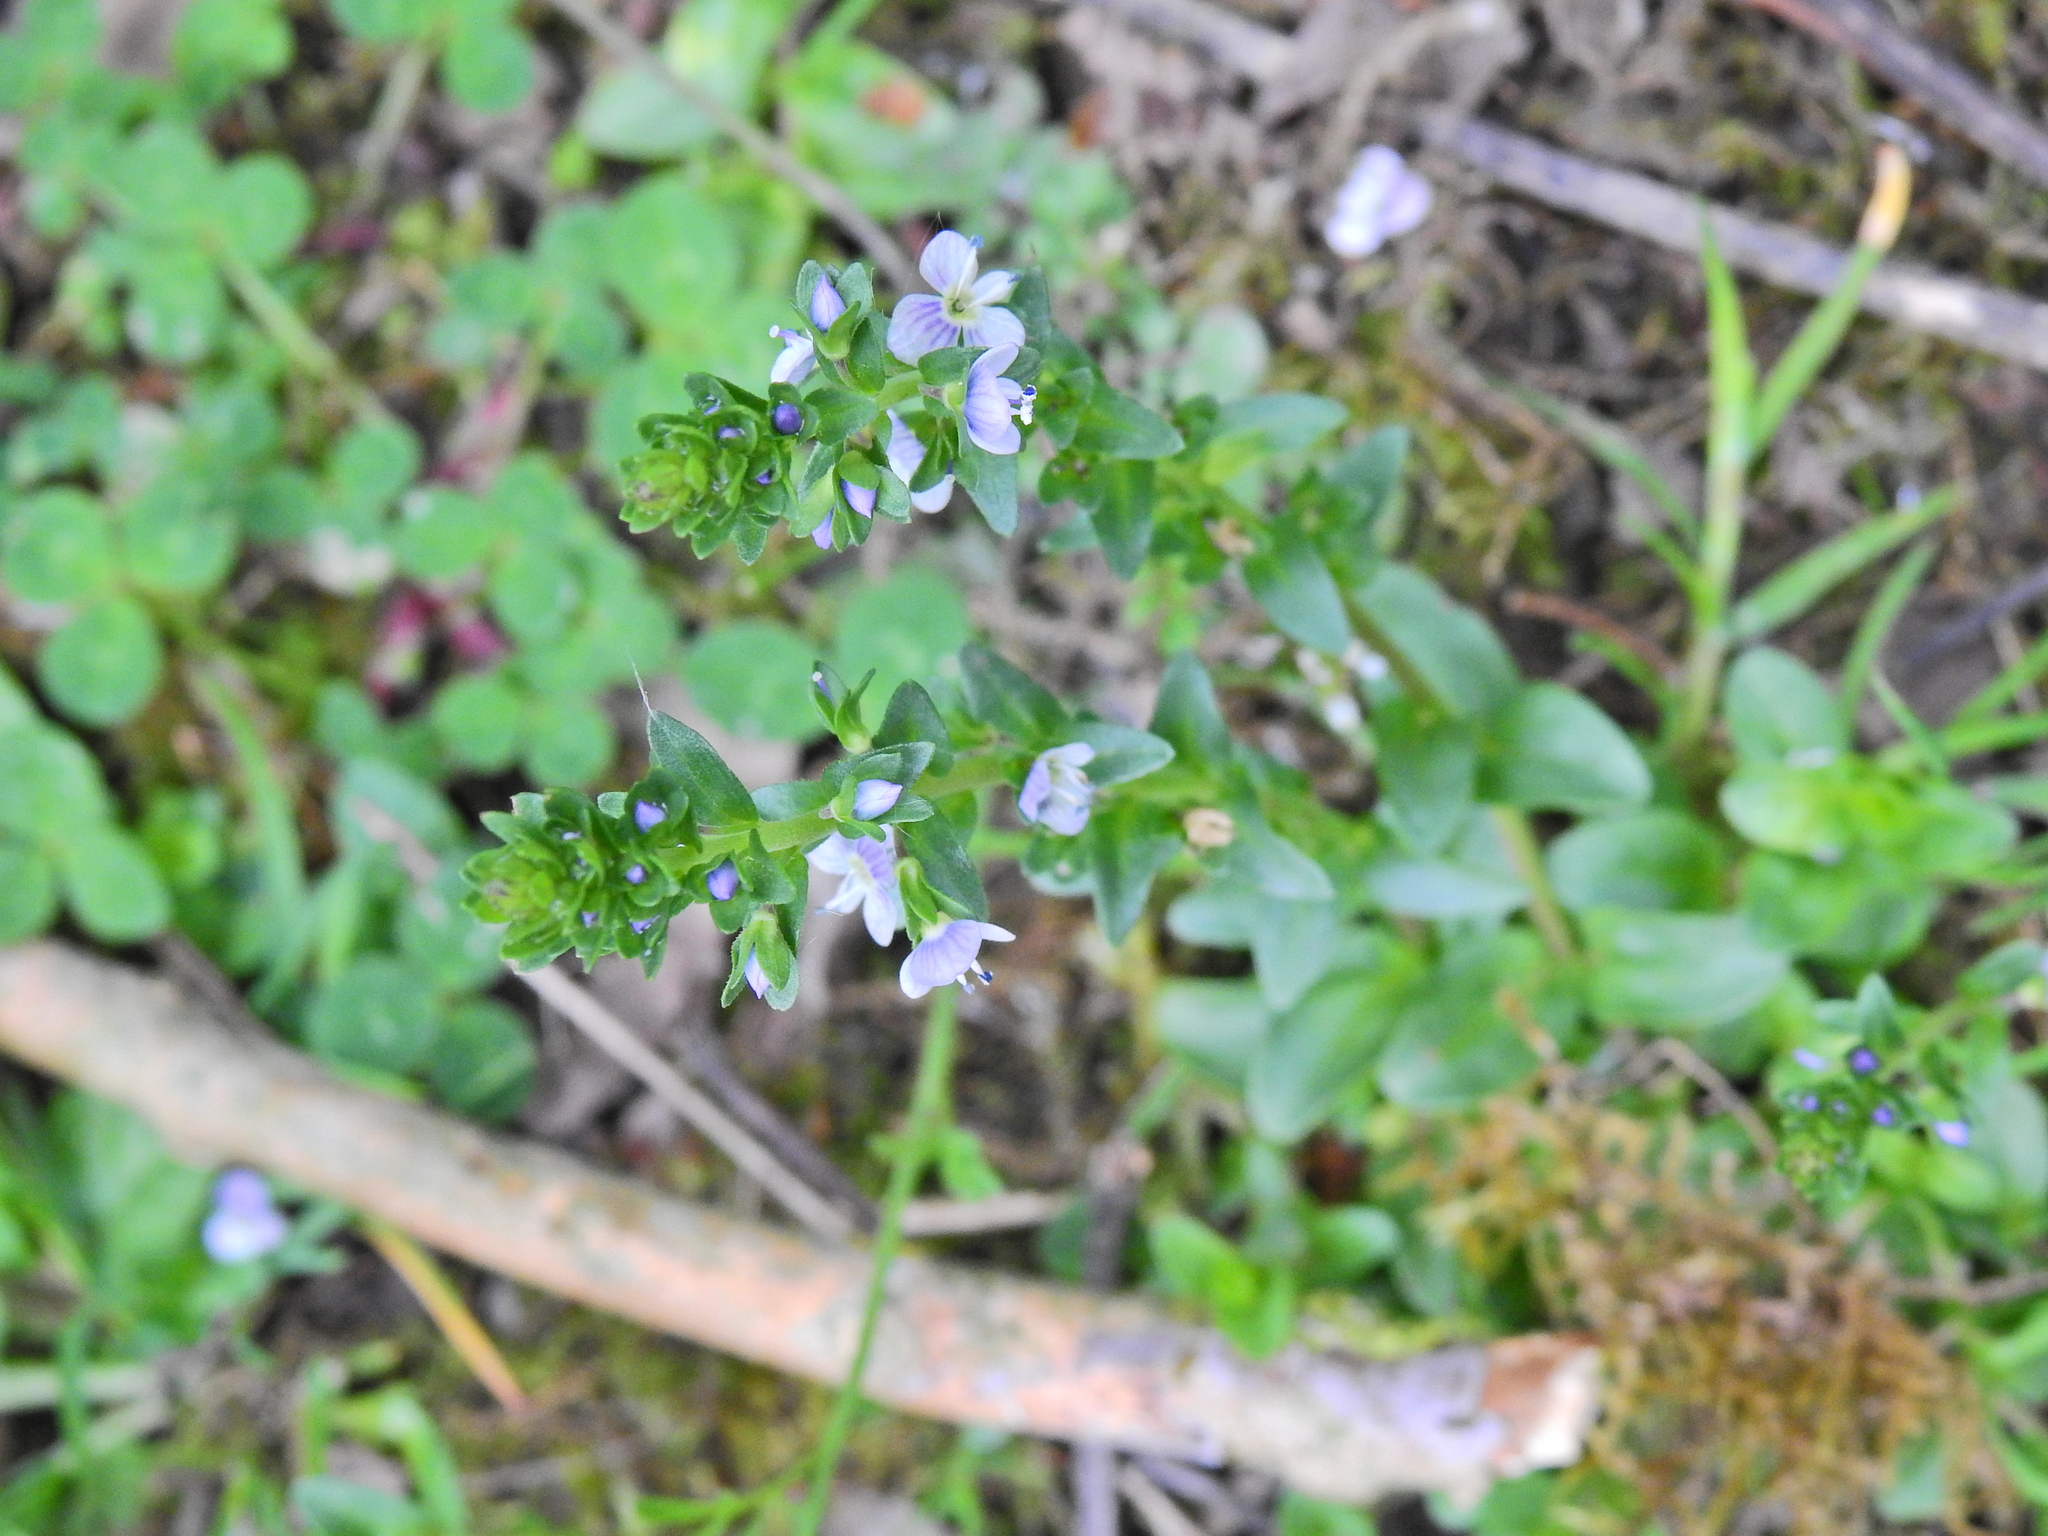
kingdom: Plantae
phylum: Tracheophyta
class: Magnoliopsida
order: Lamiales
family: Plantaginaceae
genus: Veronica
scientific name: Veronica serpyllifolia
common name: Thyme-leaved speedwell
